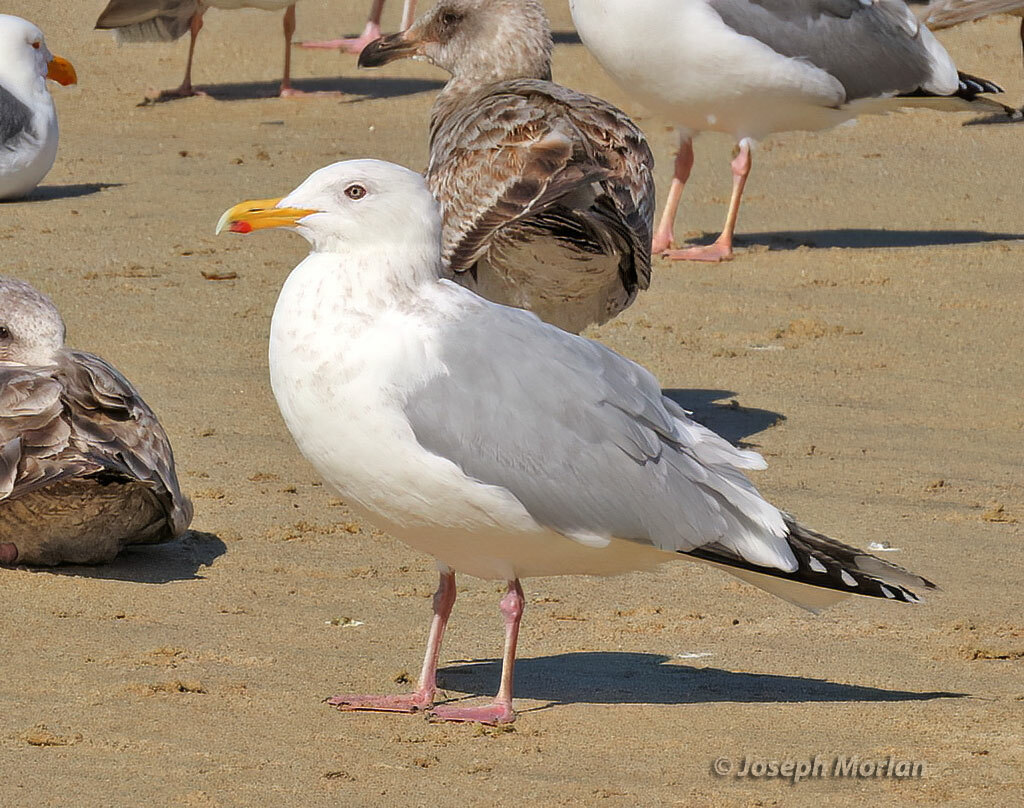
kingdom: Animalia
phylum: Chordata
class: Aves
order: Charadriiformes
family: Laridae
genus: Larus
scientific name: Larus argentatus
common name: Herring gull
